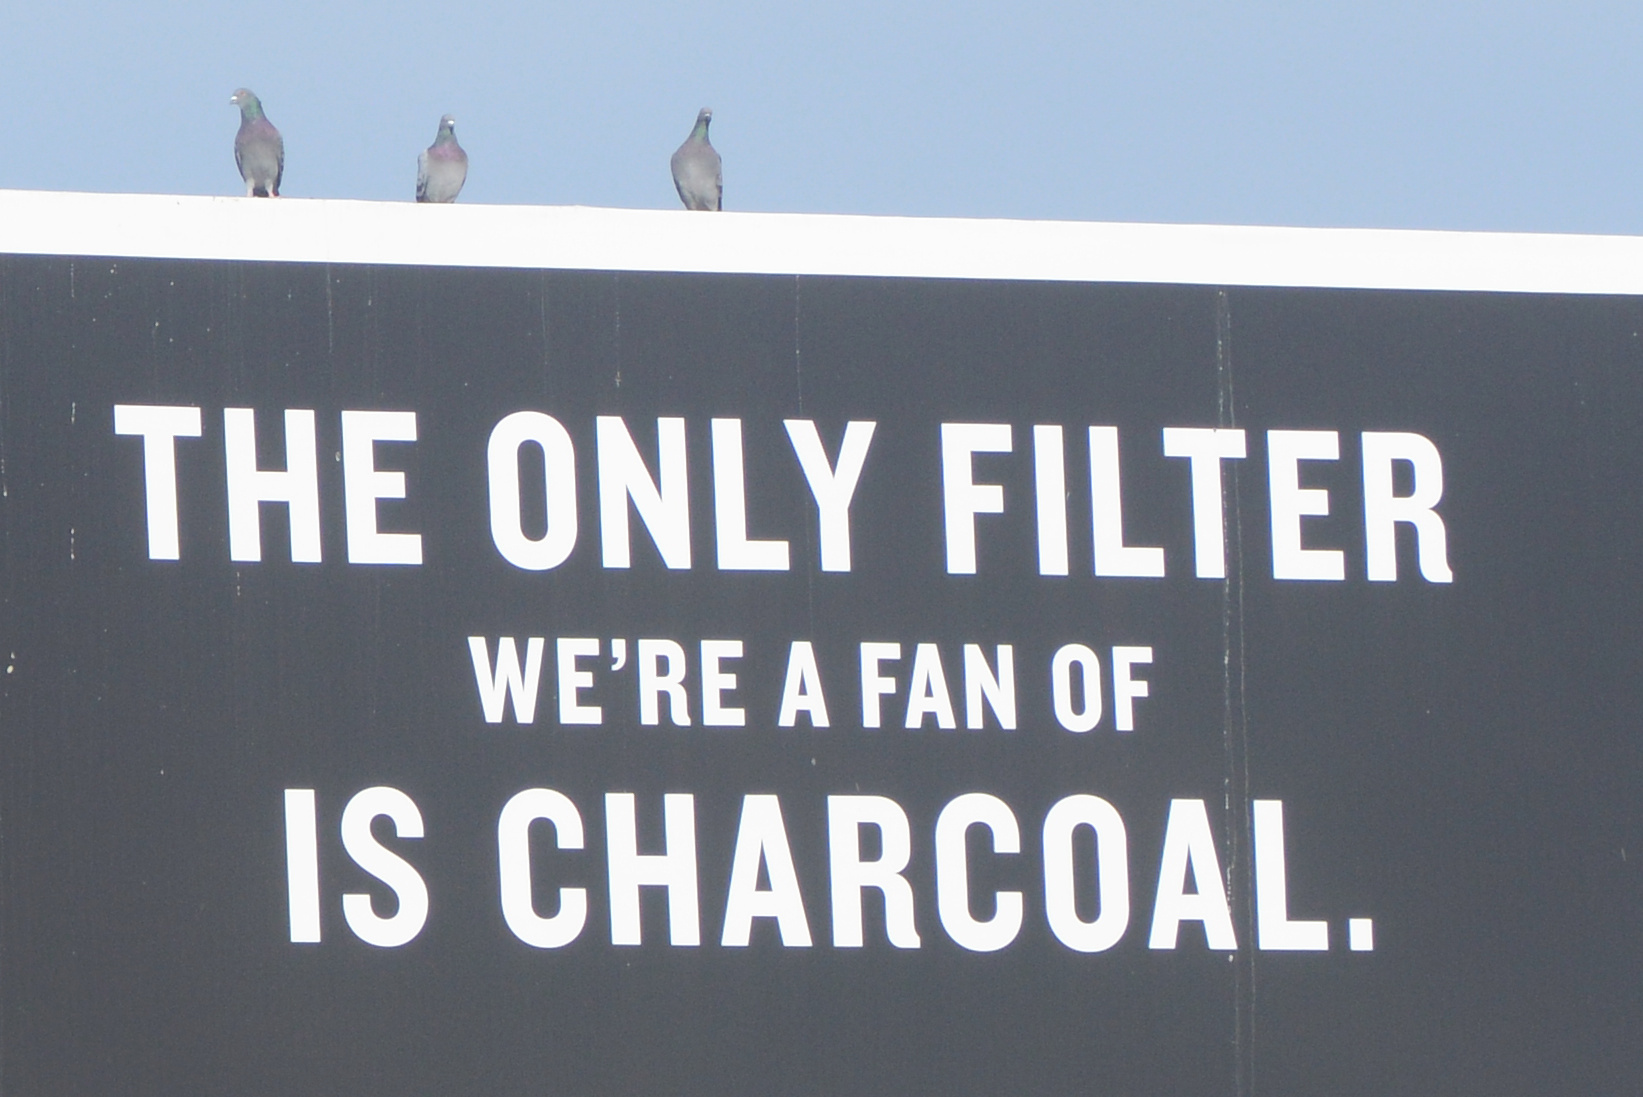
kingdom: Animalia
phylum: Chordata
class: Aves
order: Columbiformes
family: Columbidae
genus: Columba
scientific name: Columba livia
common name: Rock pigeon
